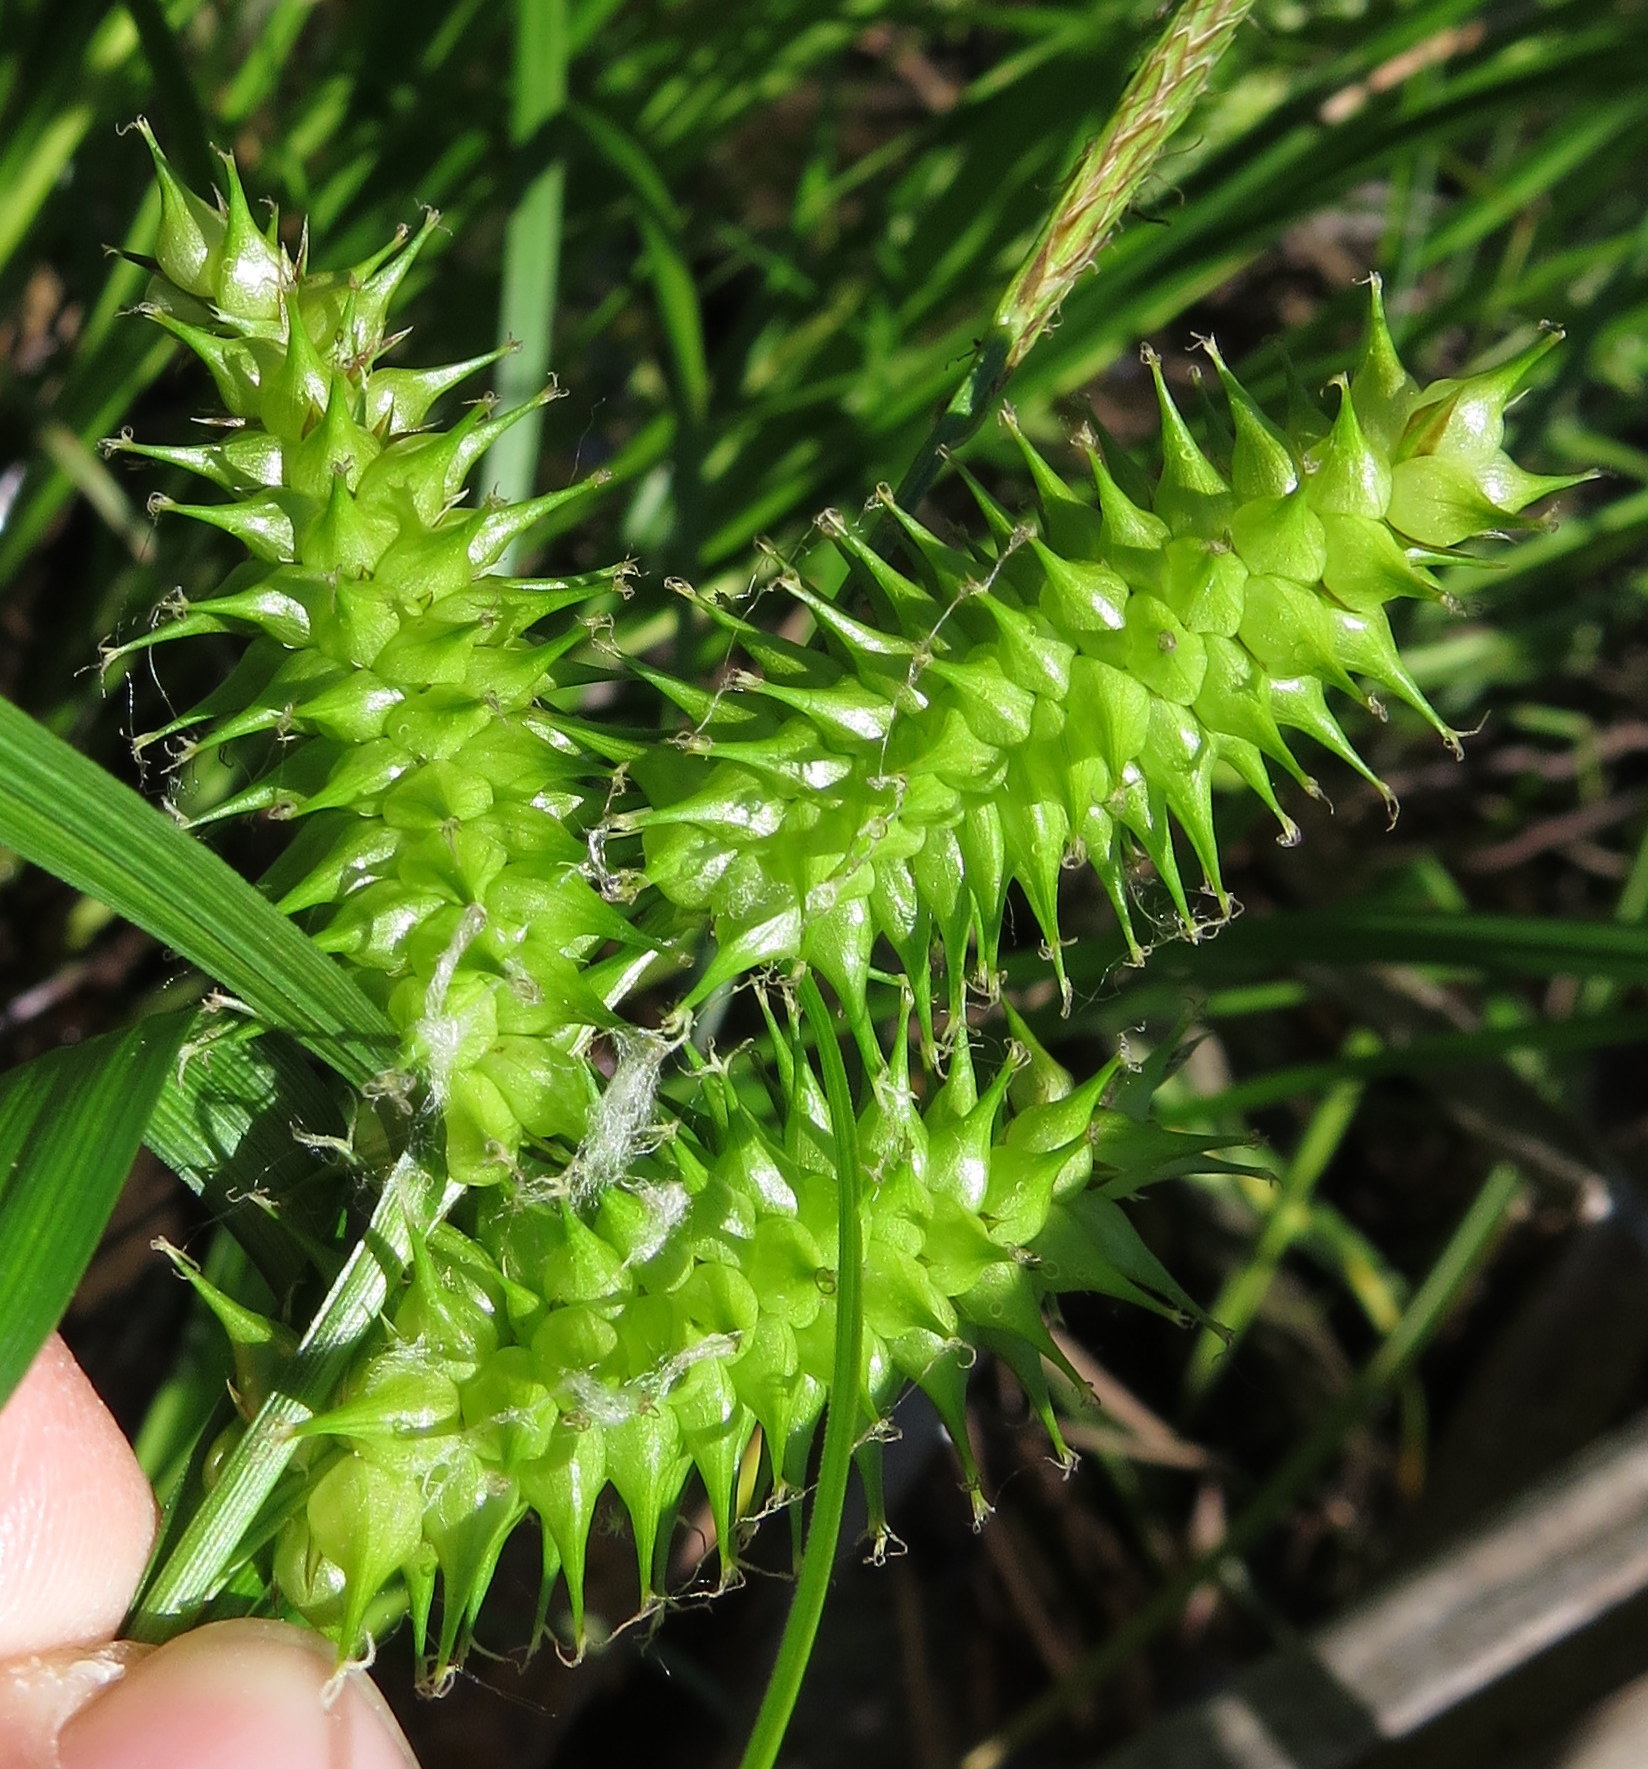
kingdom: Plantae
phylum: Tracheophyta
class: Liliopsida
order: Poales
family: Cyperaceae
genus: Carex
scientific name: Carex retrorsa
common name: Knot-sheath sedge
